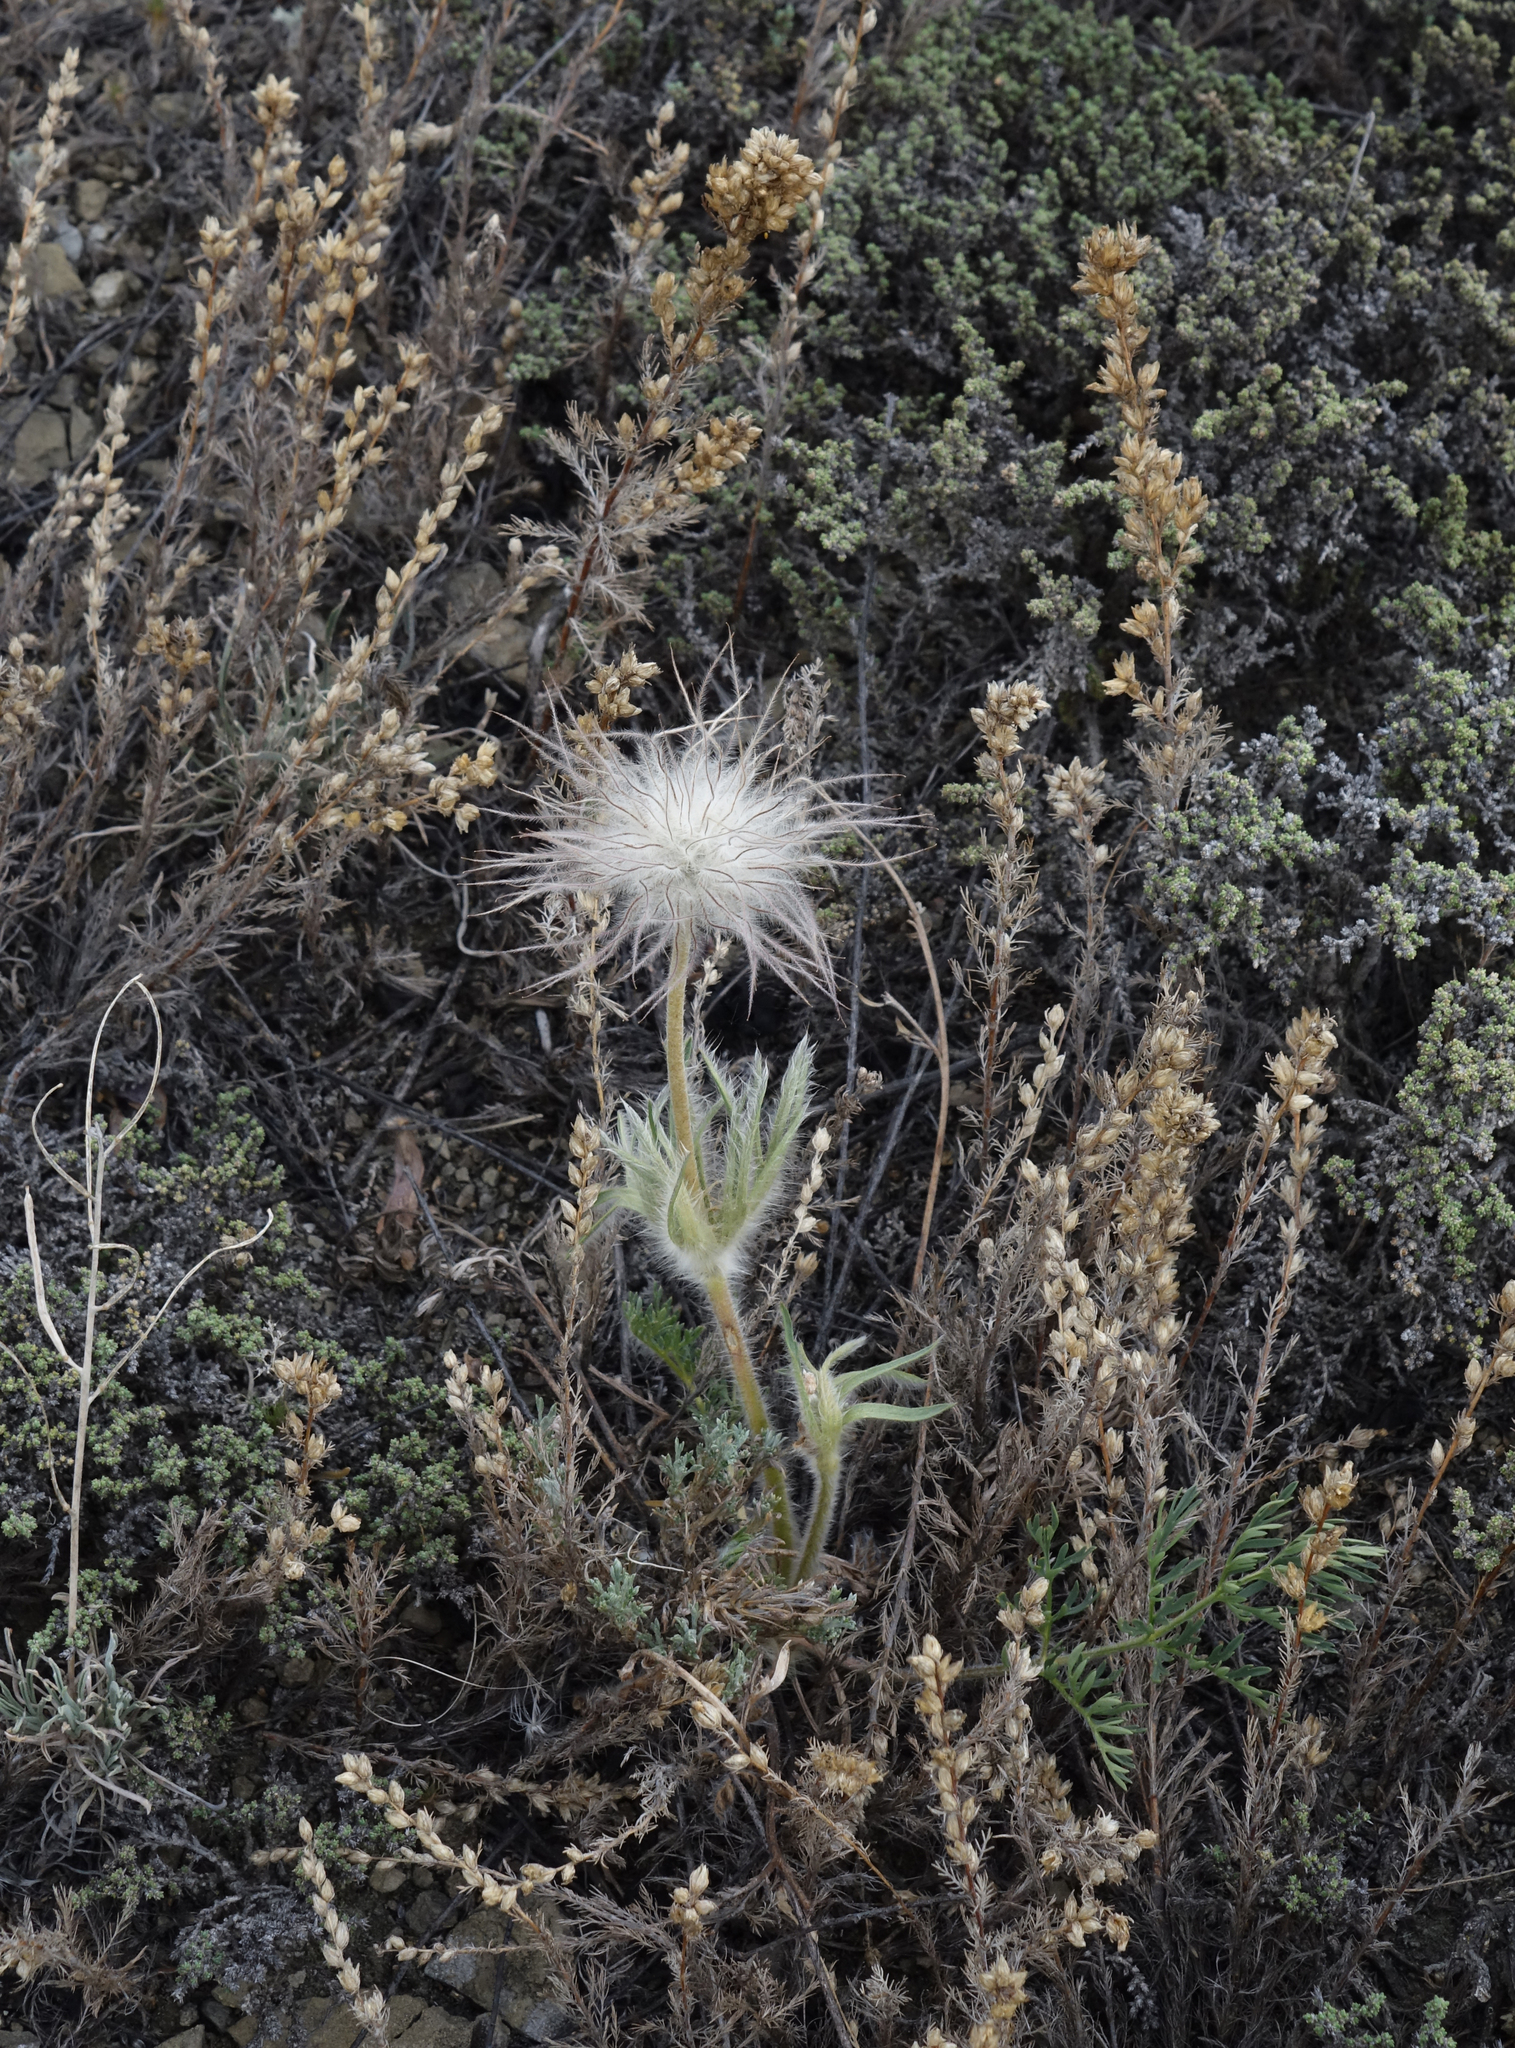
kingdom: Plantae
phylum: Tracheophyta
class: Magnoliopsida
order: Ranunculales
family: Ranunculaceae
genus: Pulsatilla
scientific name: Pulsatilla turczaninovii
